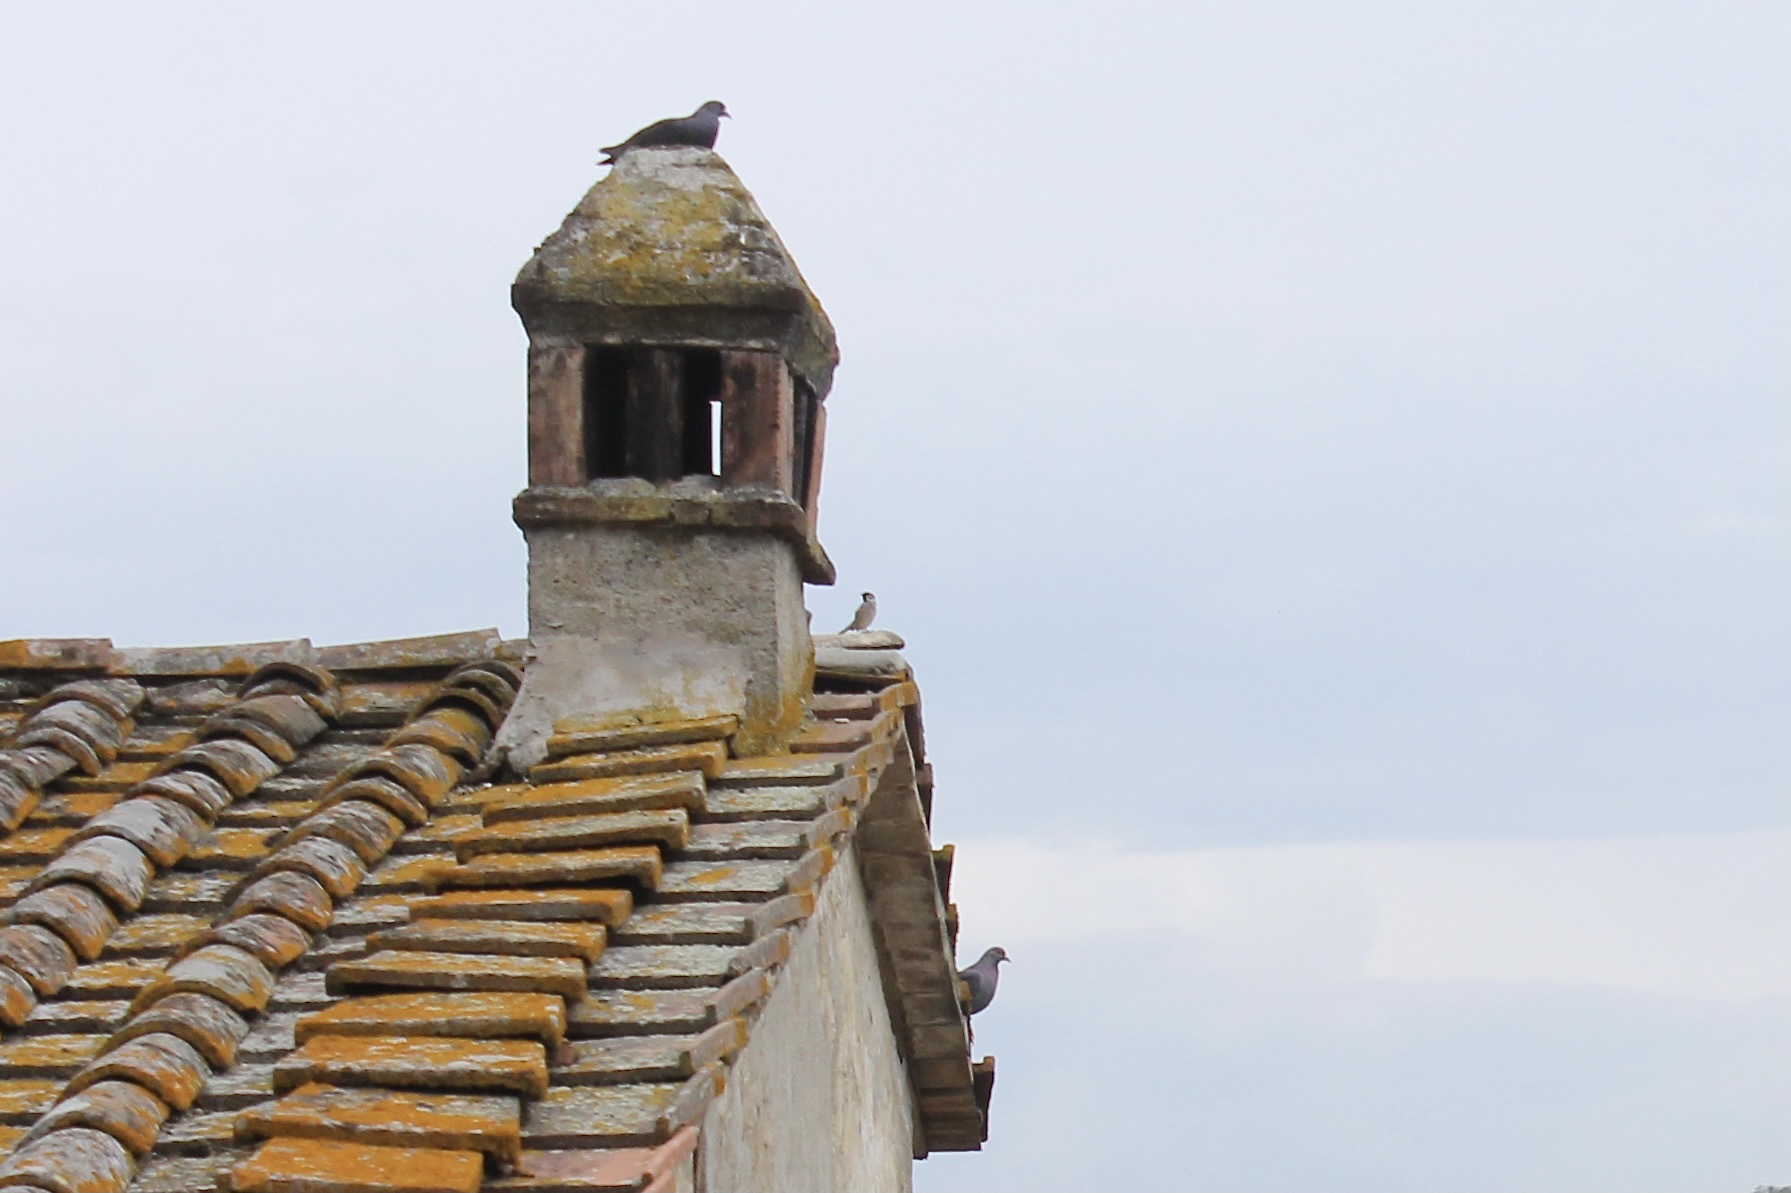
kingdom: Animalia
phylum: Chordata
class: Aves
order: Passeriformes
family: Passeridae
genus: Passer
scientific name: Passer montanus
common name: Eurasian tree sparrow
